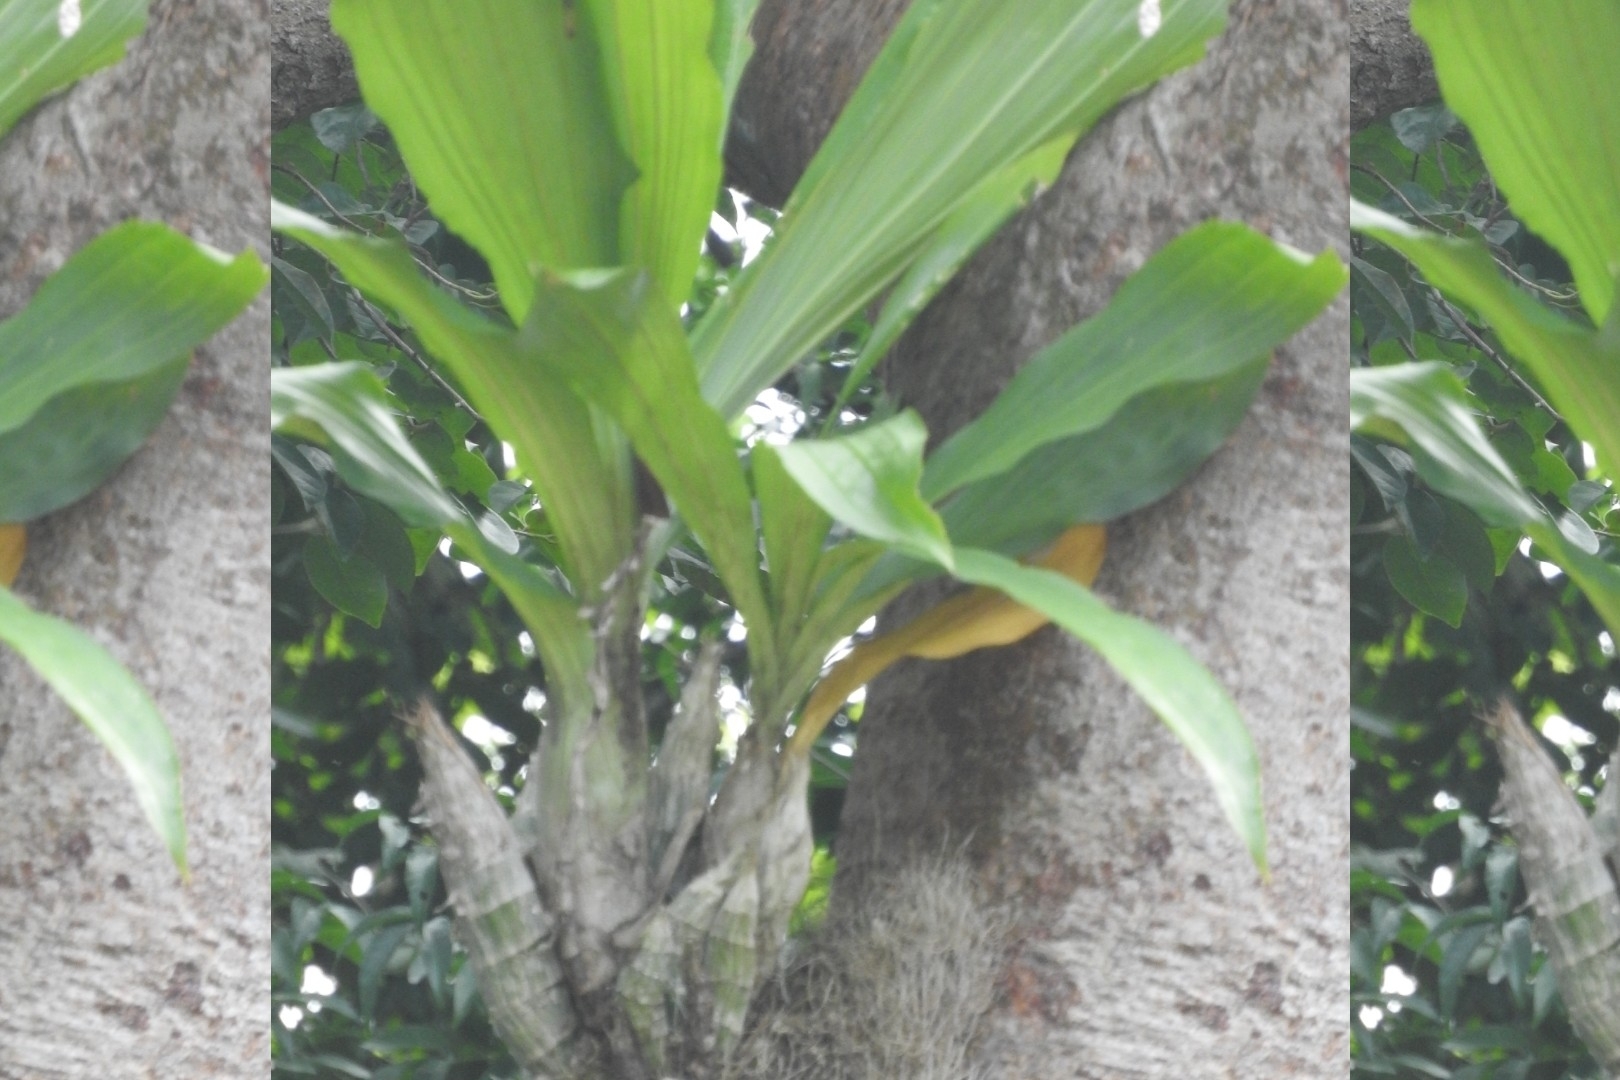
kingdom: Plantae
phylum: Tracheophyta
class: Liliopsida
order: Asparagales
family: Orchidaceae
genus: Catasetum
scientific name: Catasetum integerrimum
